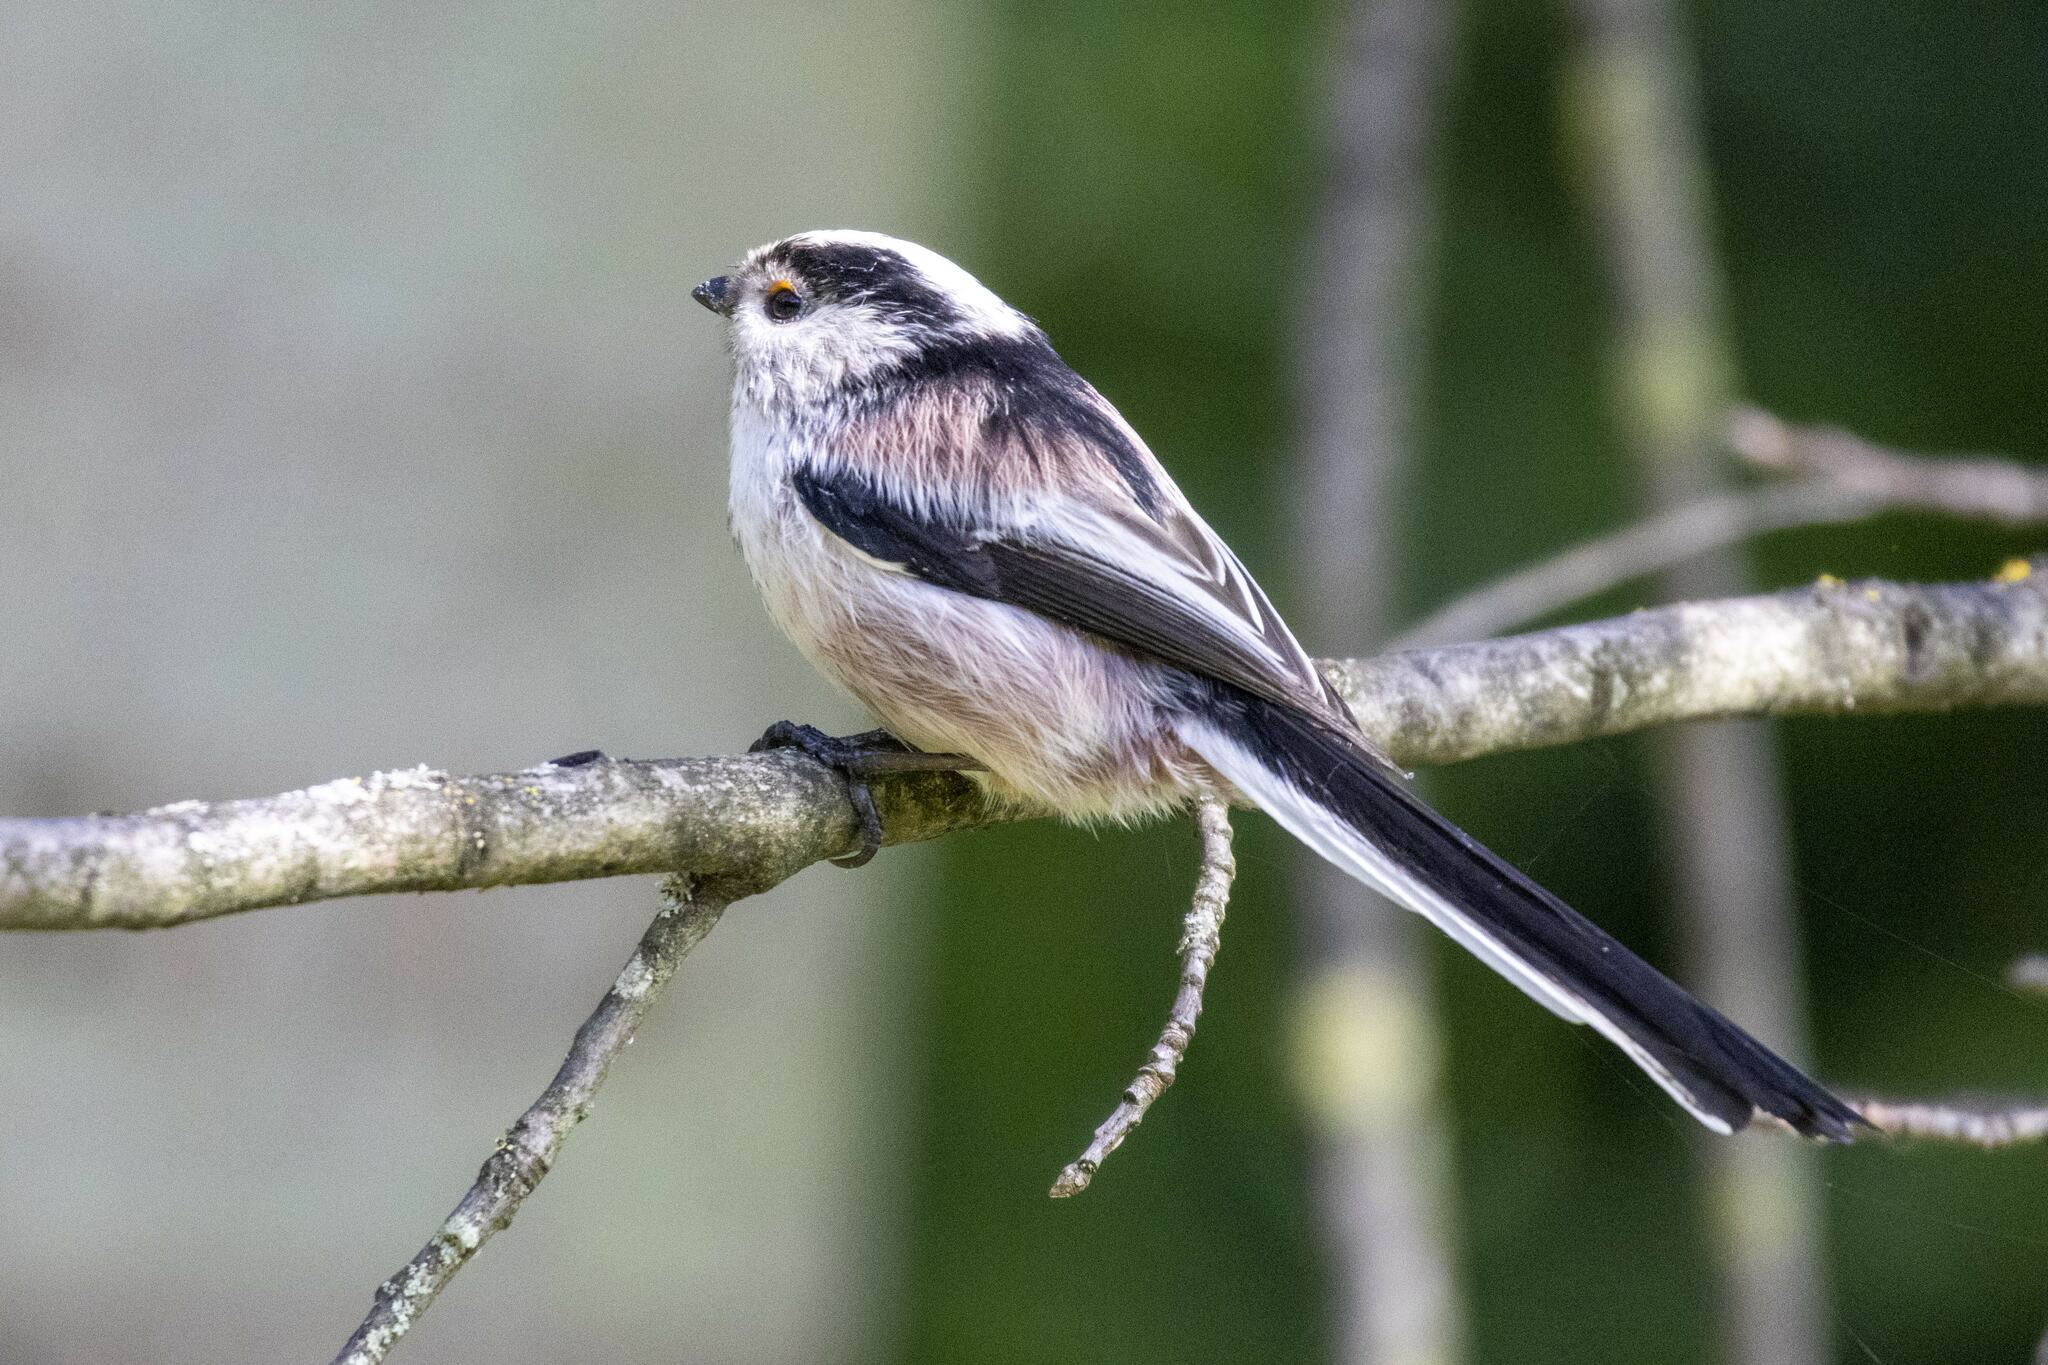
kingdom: Animalia
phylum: Chordata
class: Aves
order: Passeriformes
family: Aegithalidae
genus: Aegithalos
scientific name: Aegithalos caudatus
